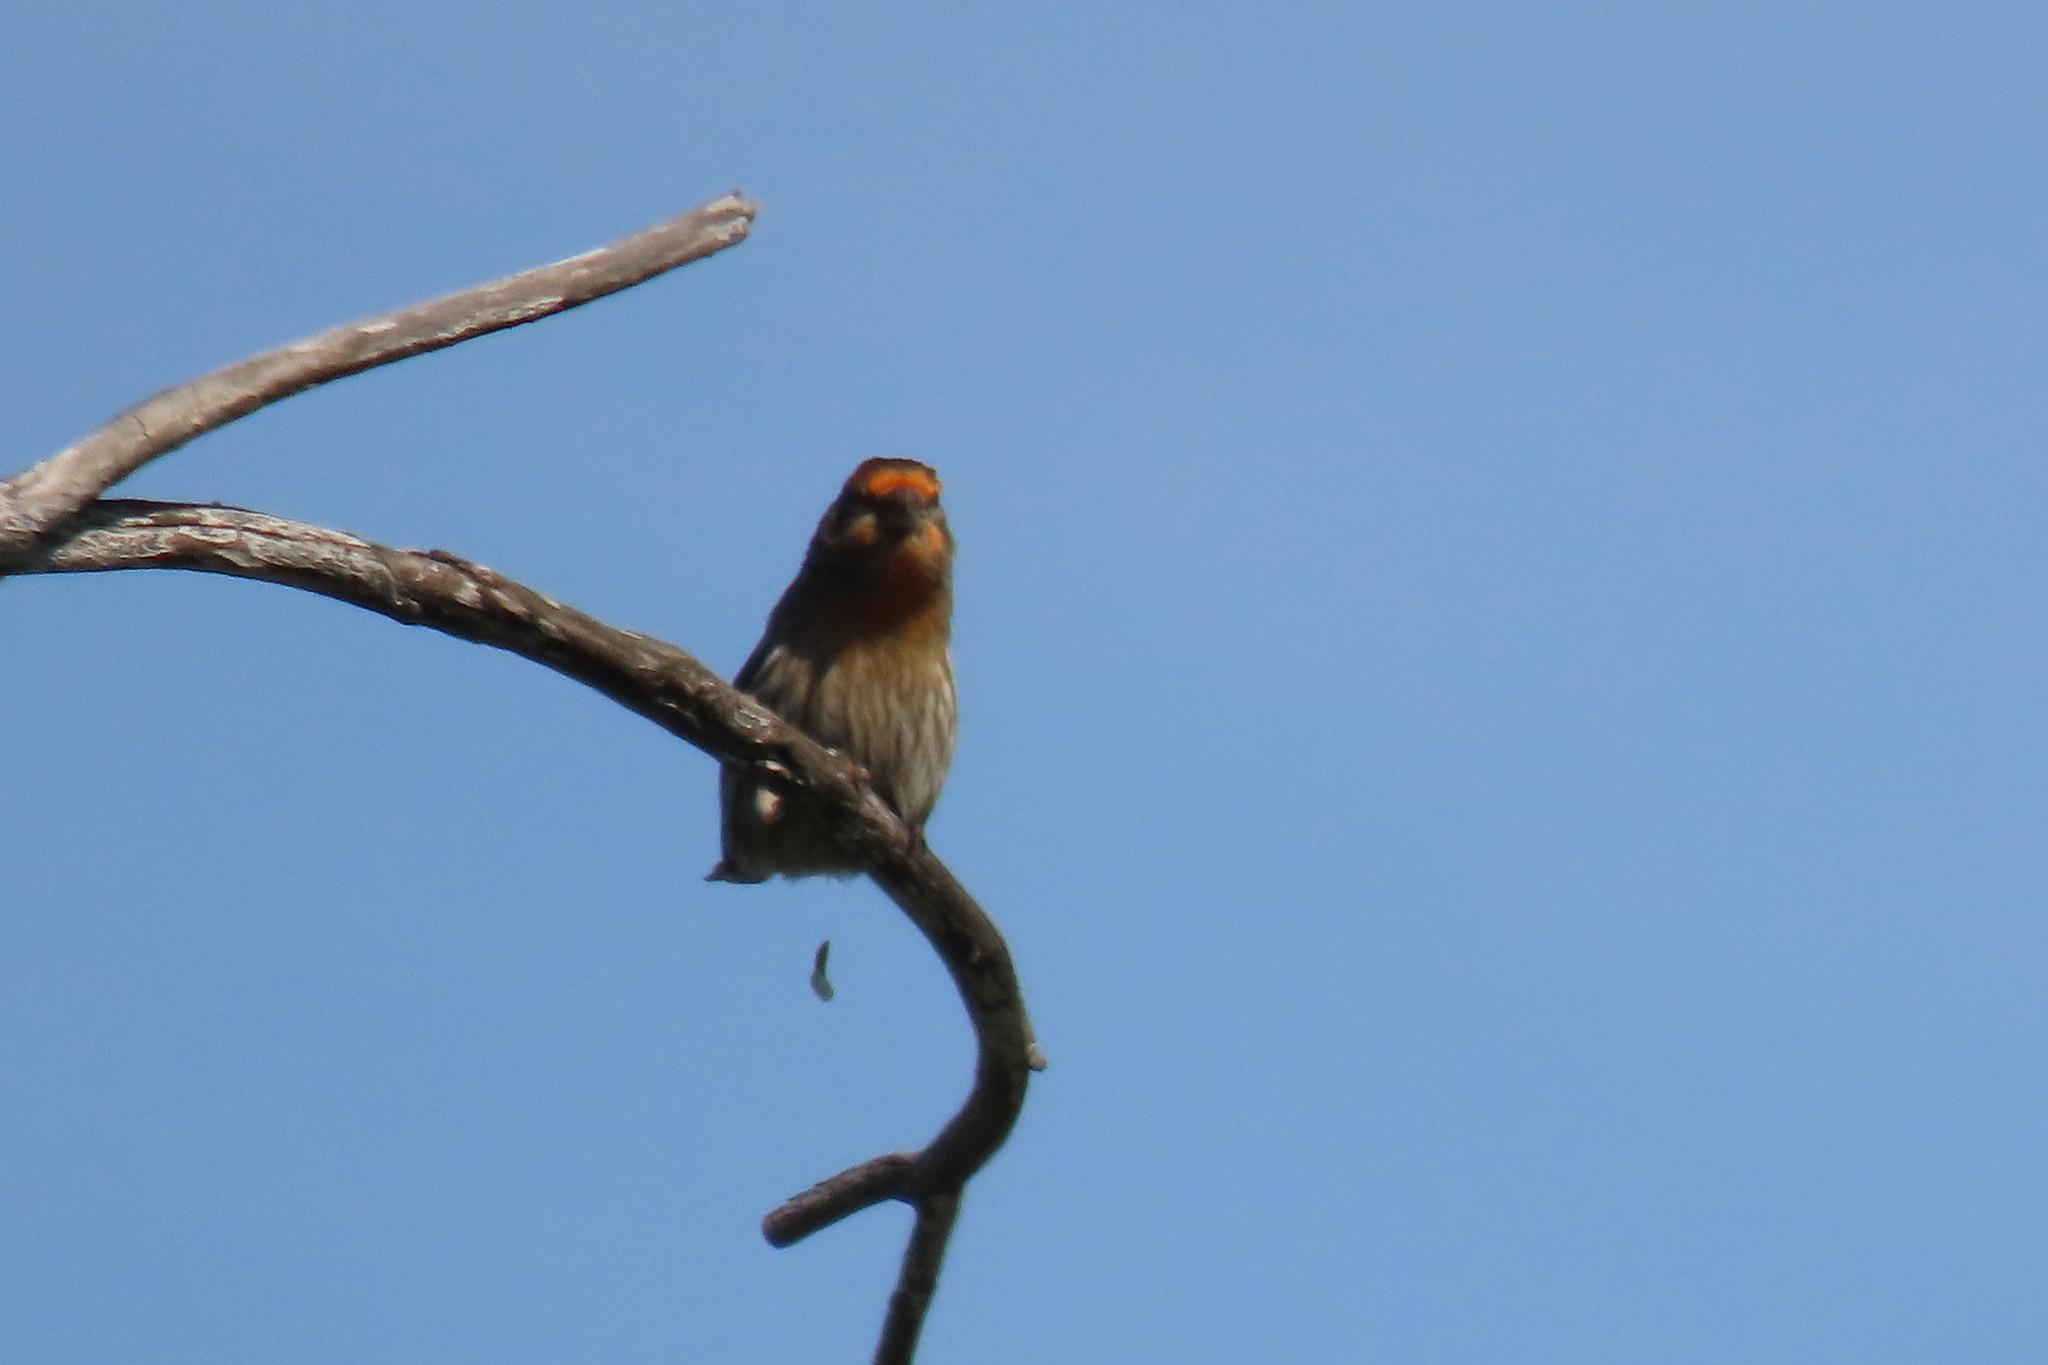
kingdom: Animalia
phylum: Chordata
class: Aves
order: Passeriformes
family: Fringillidae
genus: Haemorhous
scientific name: Haemorhous mexicanus
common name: House finch
